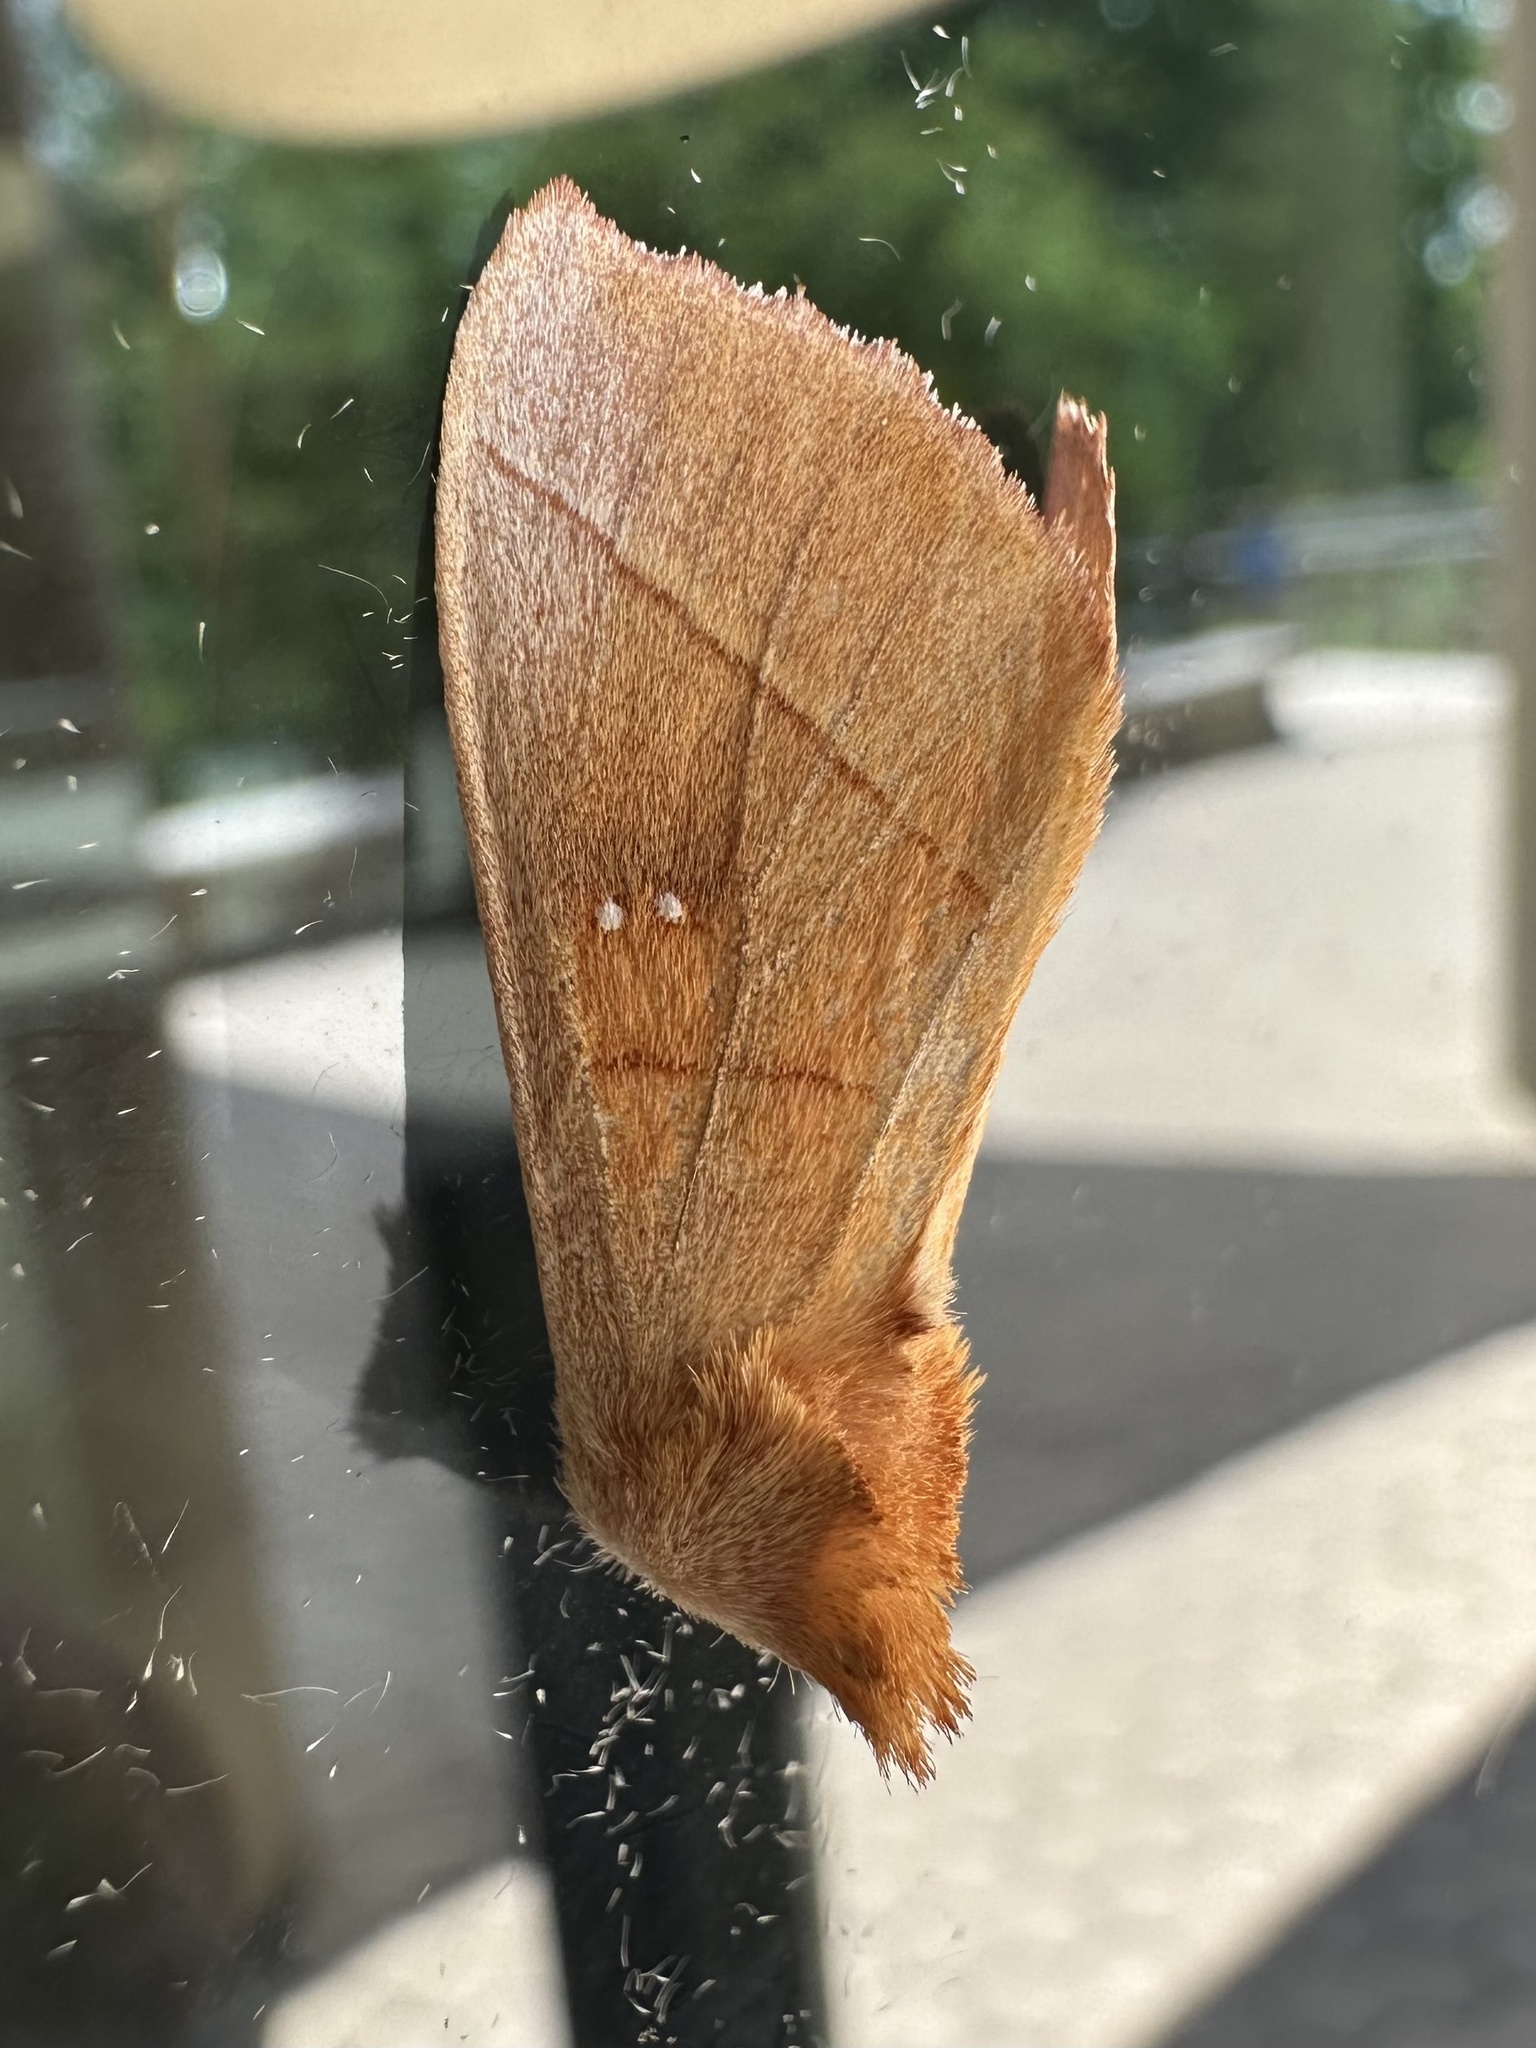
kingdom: Animalia
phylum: Arthropoda
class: Insecta
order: Lepidoptera
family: Notodontidae
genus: Nadata
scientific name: Nadata gibbosa
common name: White-dotted prominent
